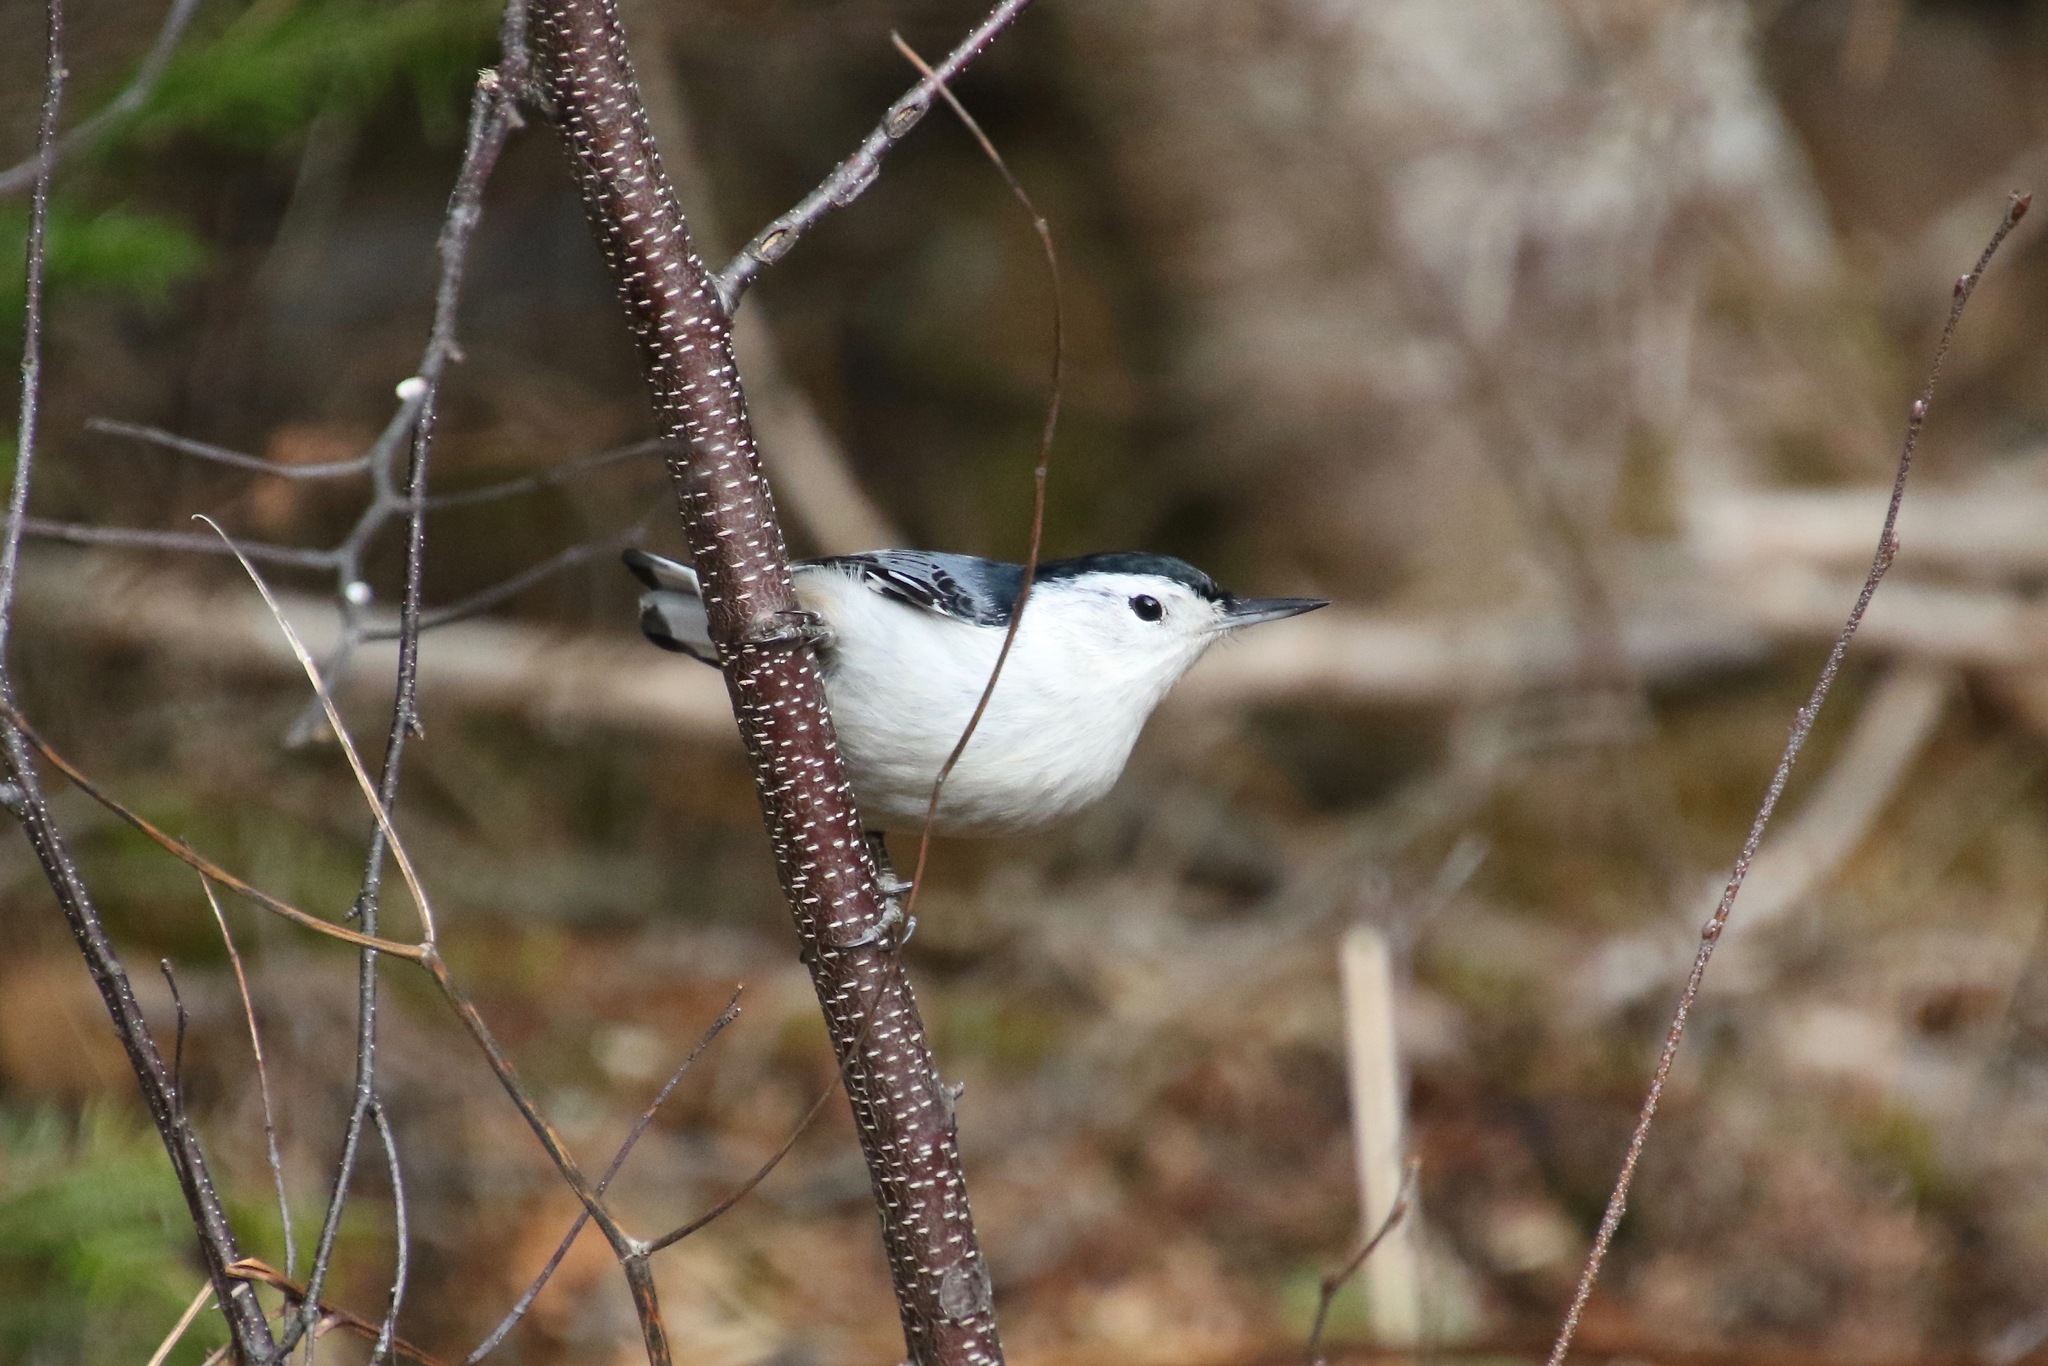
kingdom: Animalia
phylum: Chordata
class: Aves
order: Passeriformes
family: Sittidae
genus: Sitta
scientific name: Sitta carolinensis
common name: White-breasted nuthatch
